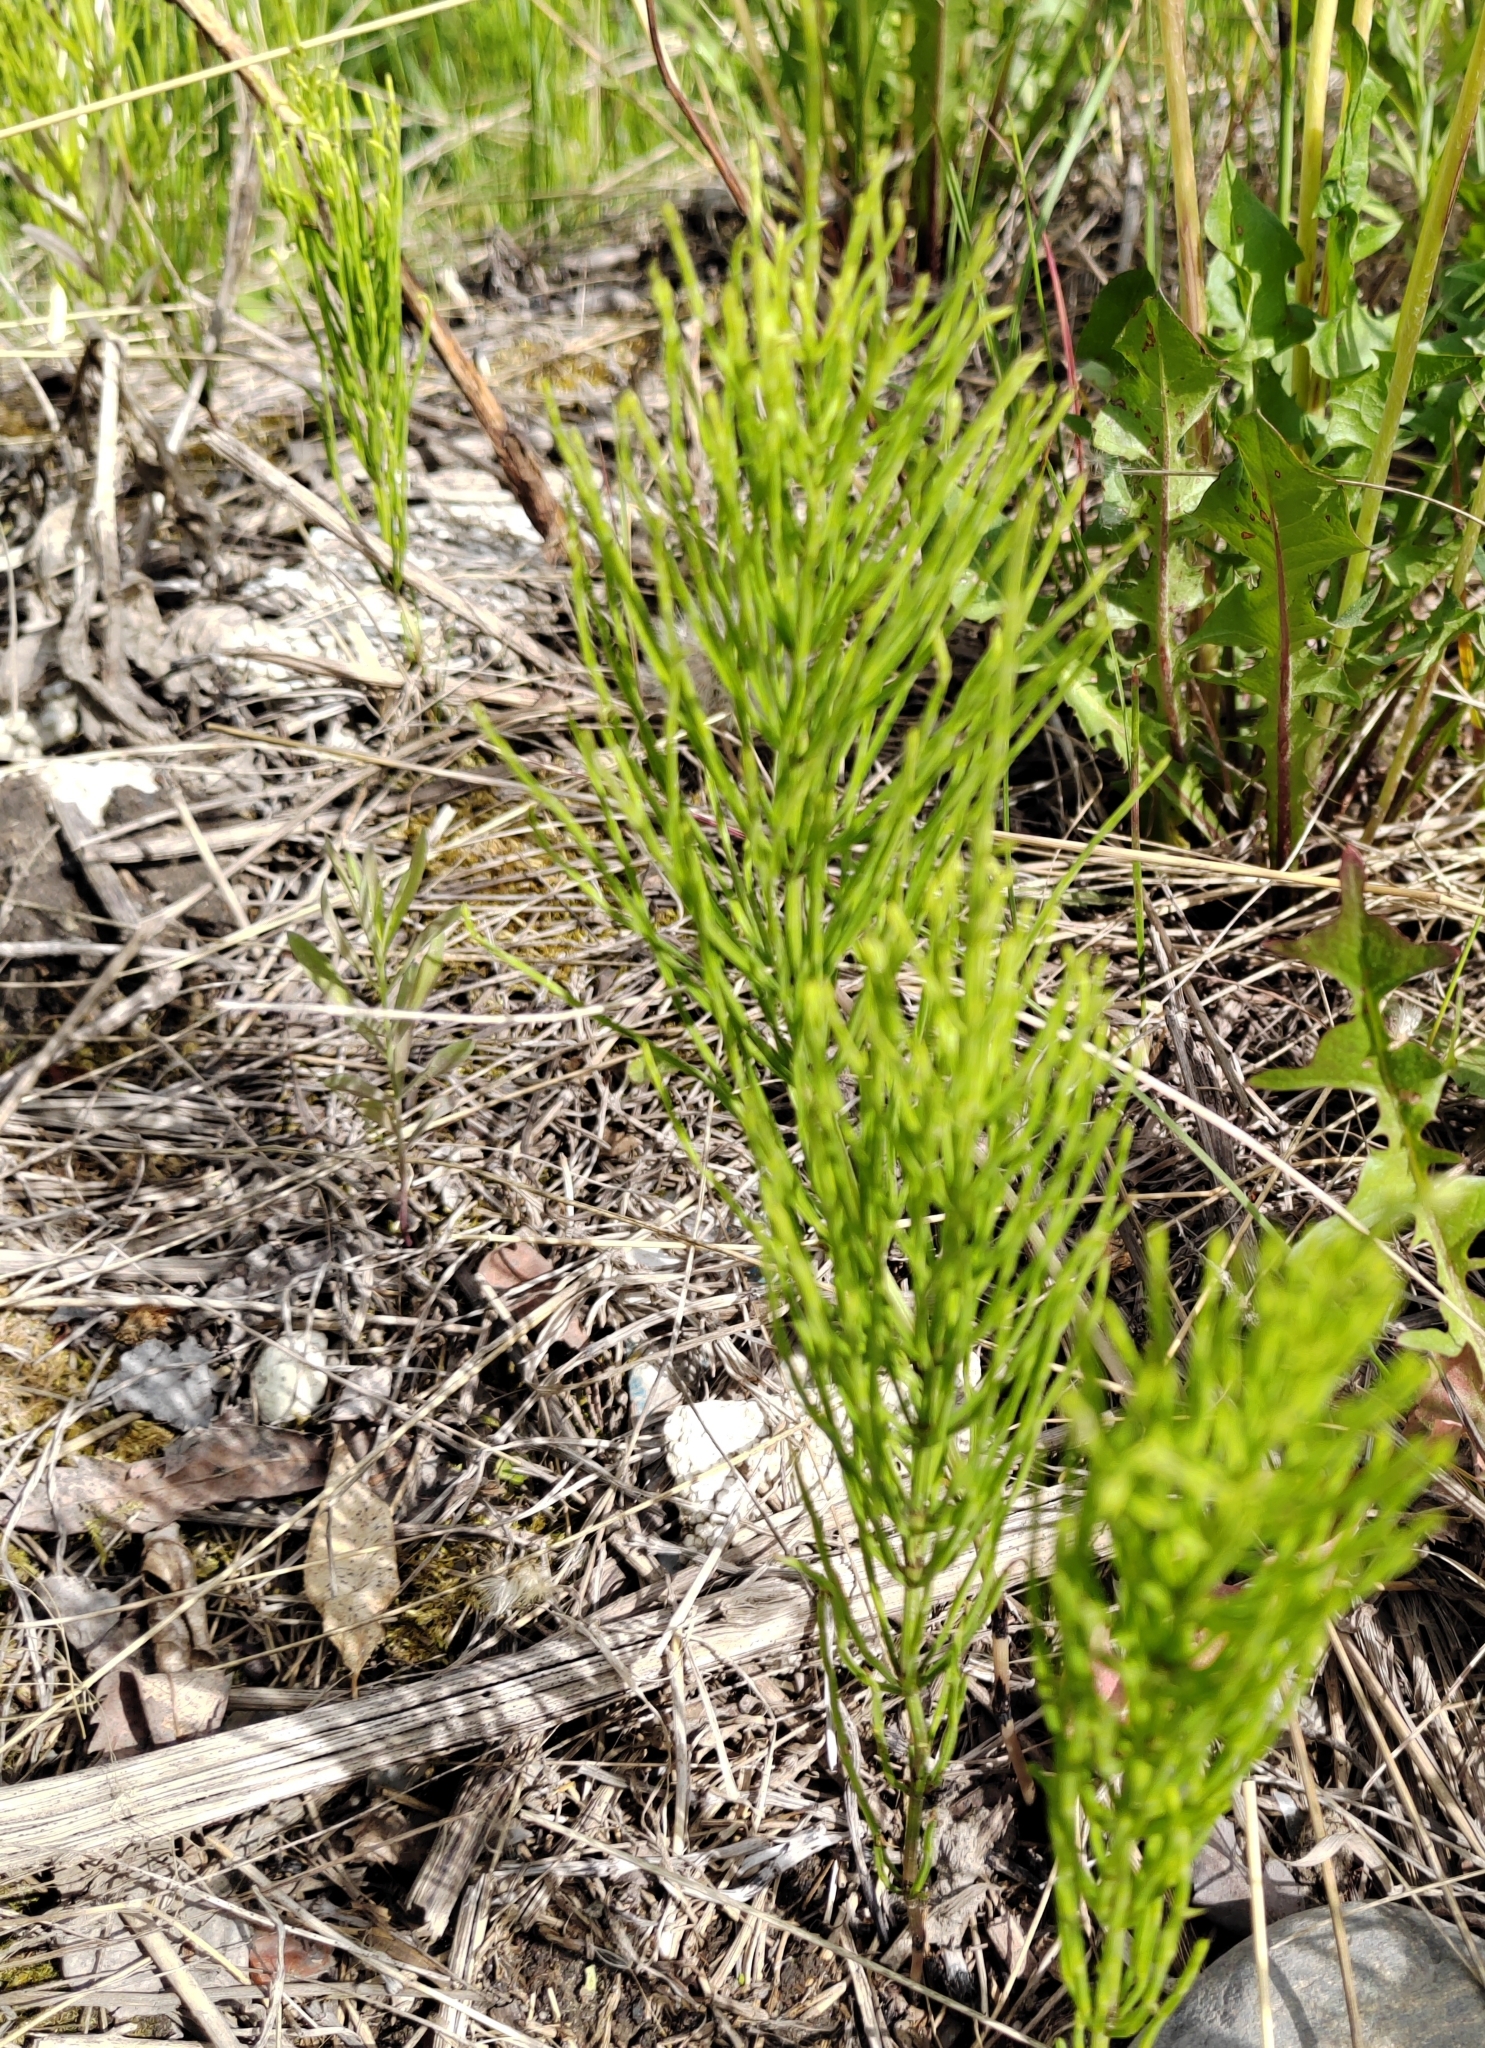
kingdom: Plantae
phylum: Tracheophyta
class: Polypodiopsida
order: Equisetales
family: Equisetaceae
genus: Equisetum
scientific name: Equisetum arvense
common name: Field horsetail
